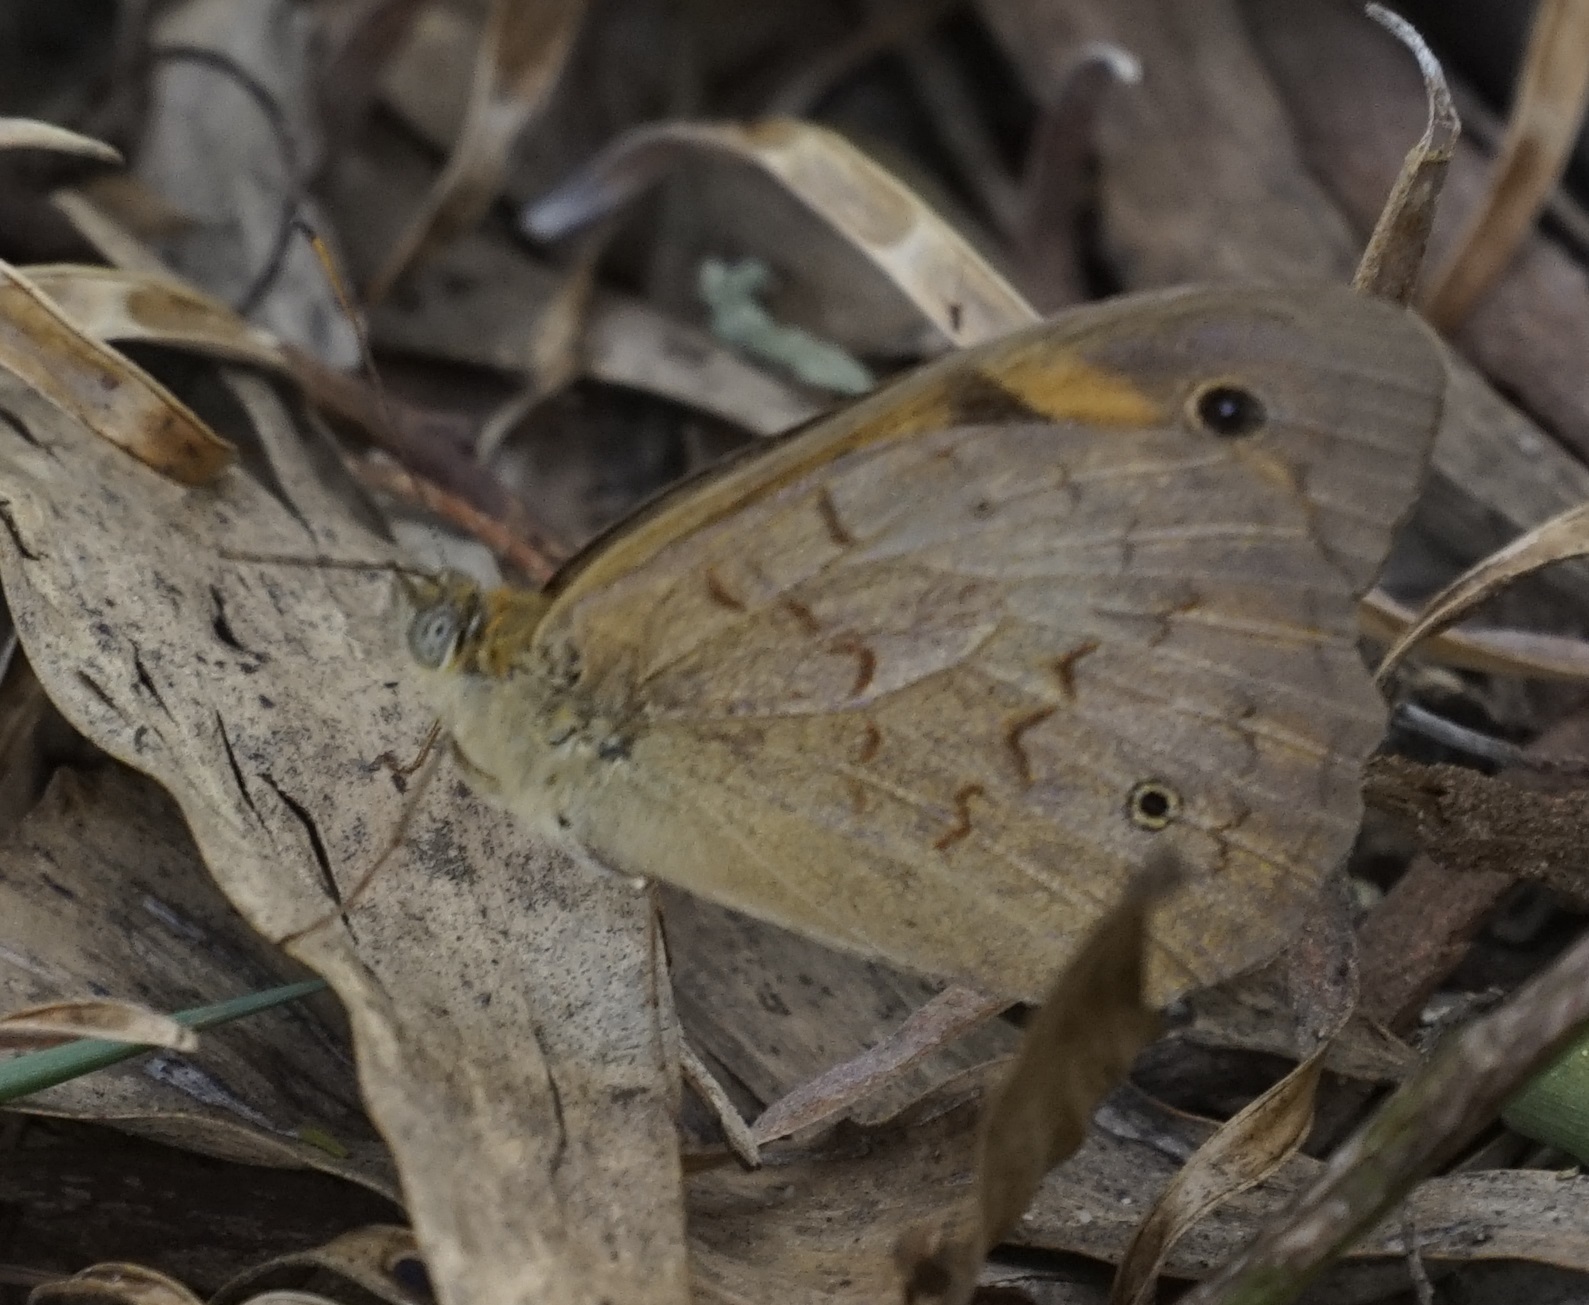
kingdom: Animalia
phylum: Arthropoda
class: Insecta
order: Lepidoptera
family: Nymphalidae
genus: Heteronympha
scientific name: Heteronympha merope
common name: Common brown
